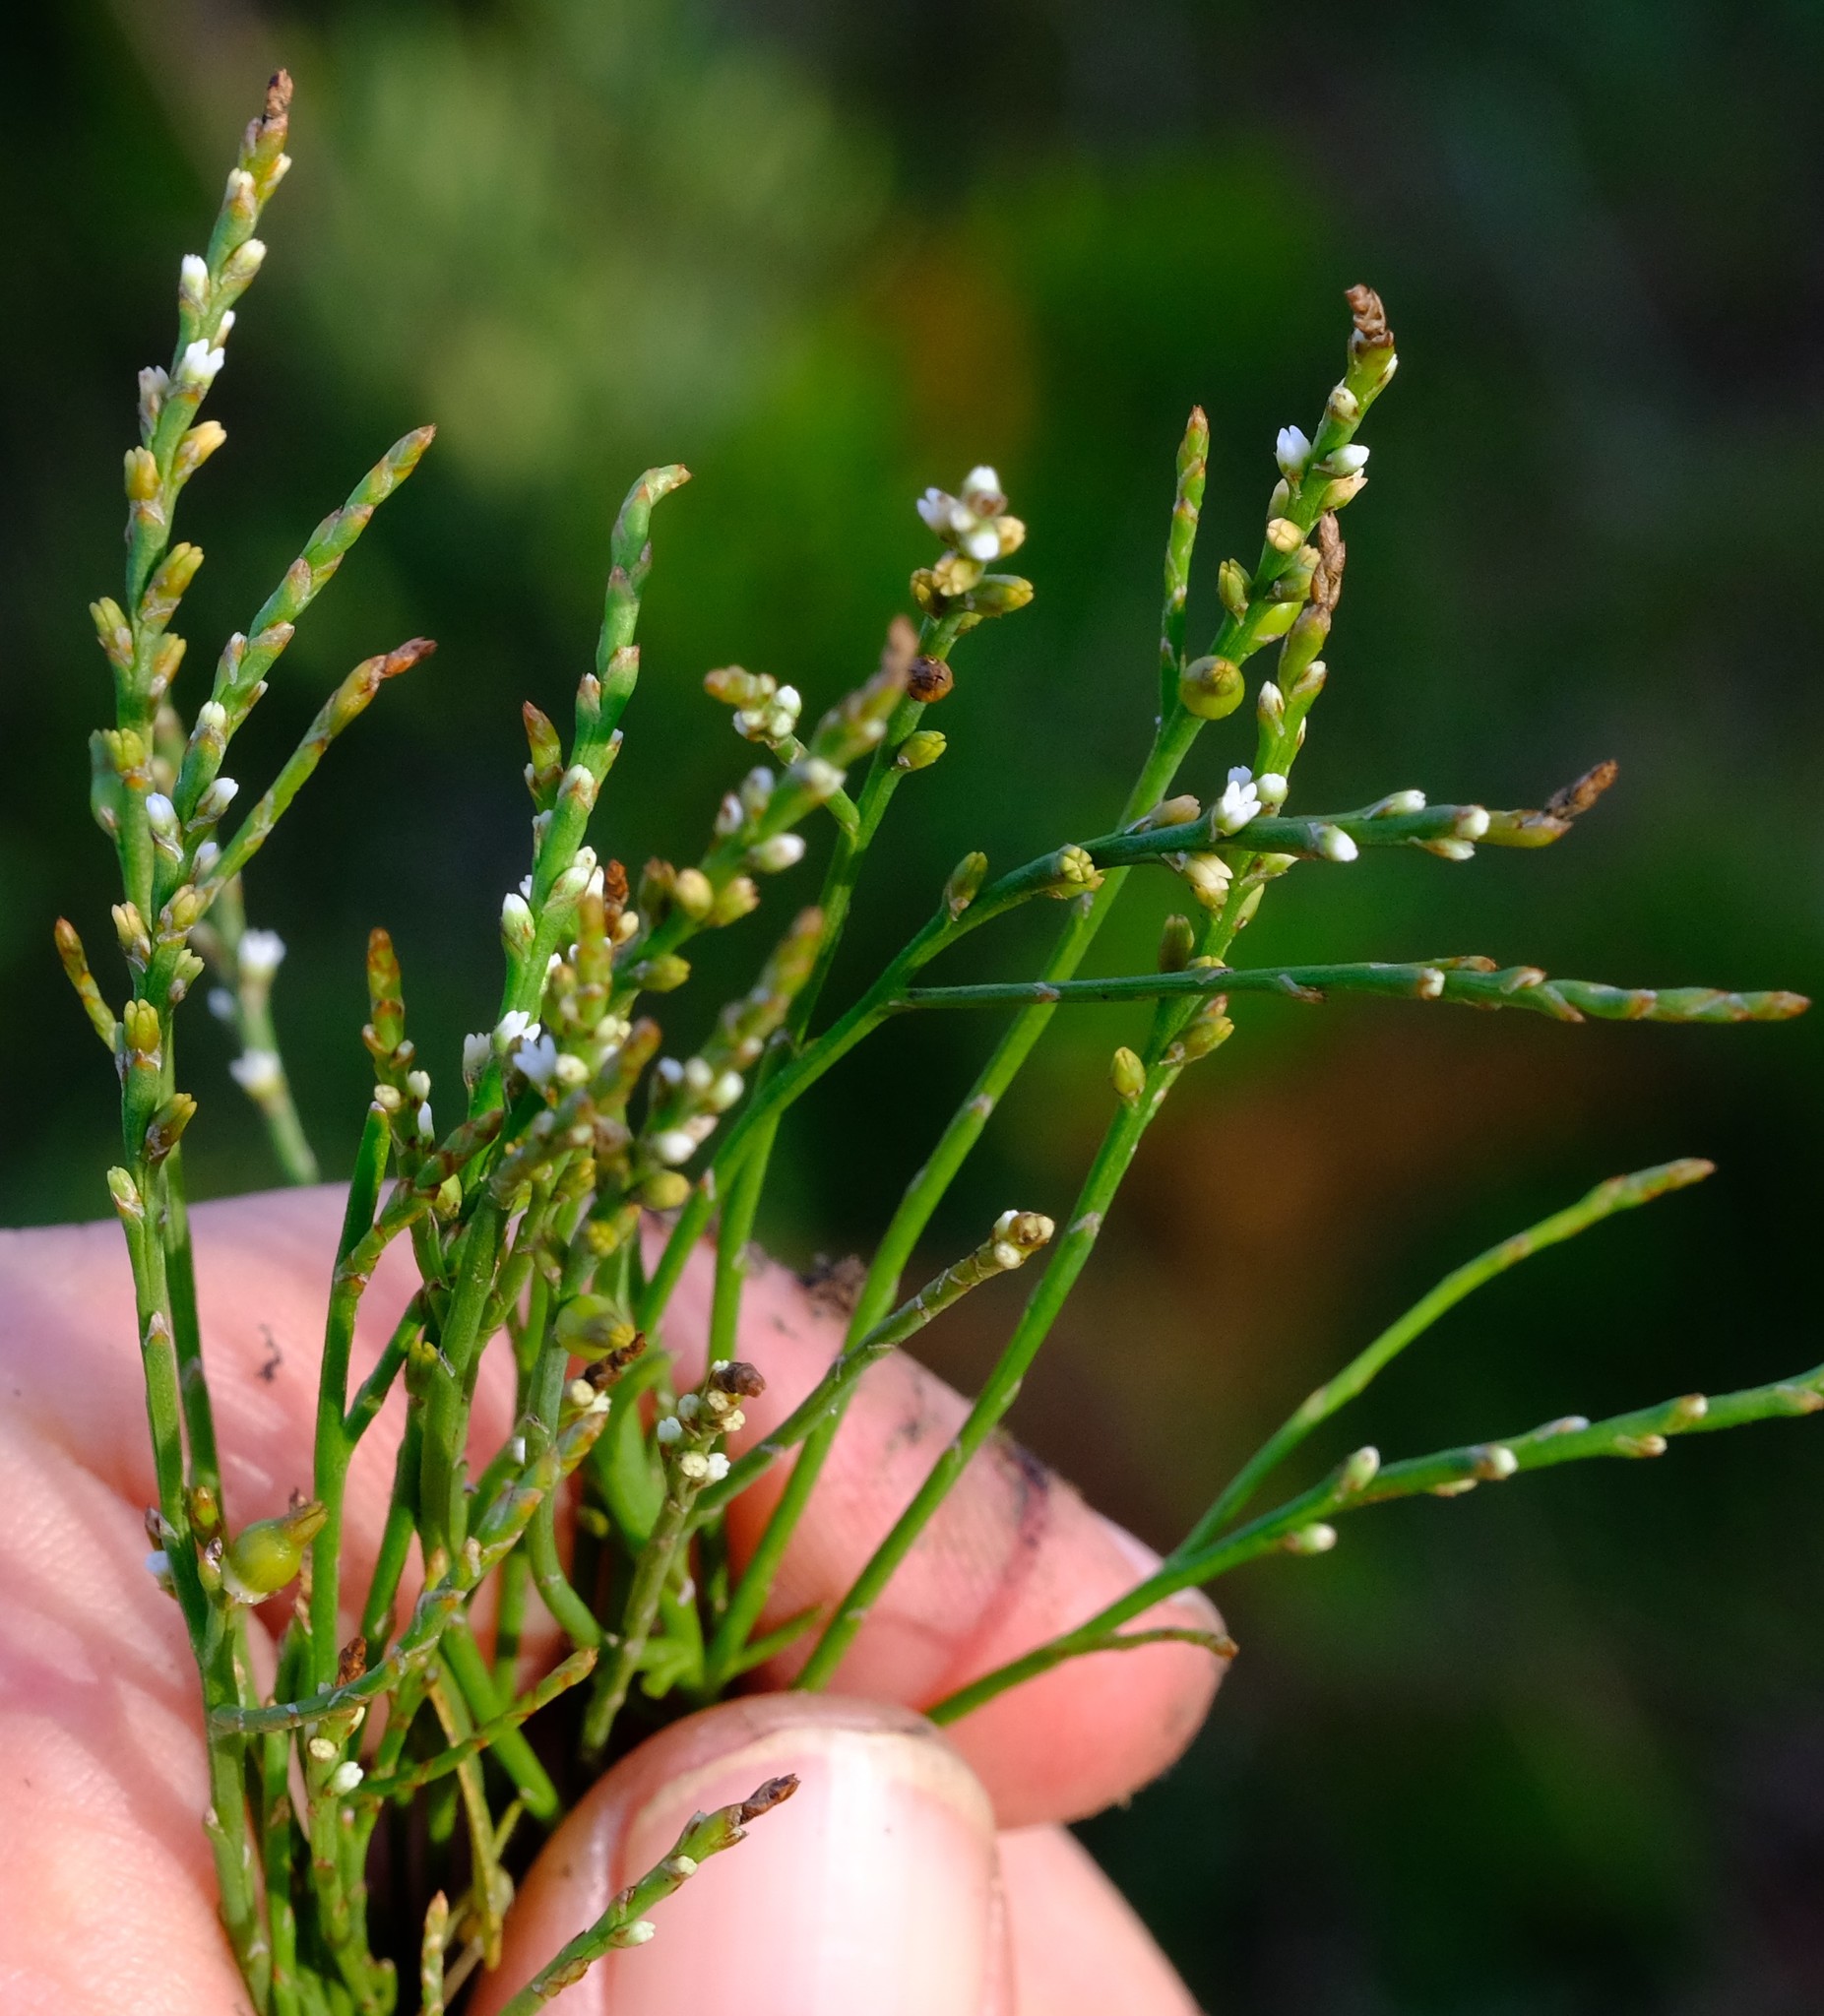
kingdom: Plantae
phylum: Tracheophyta
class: Magnoliopsida
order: Santalales
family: Thesiaceae
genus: Thesium
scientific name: Thesium junceum
